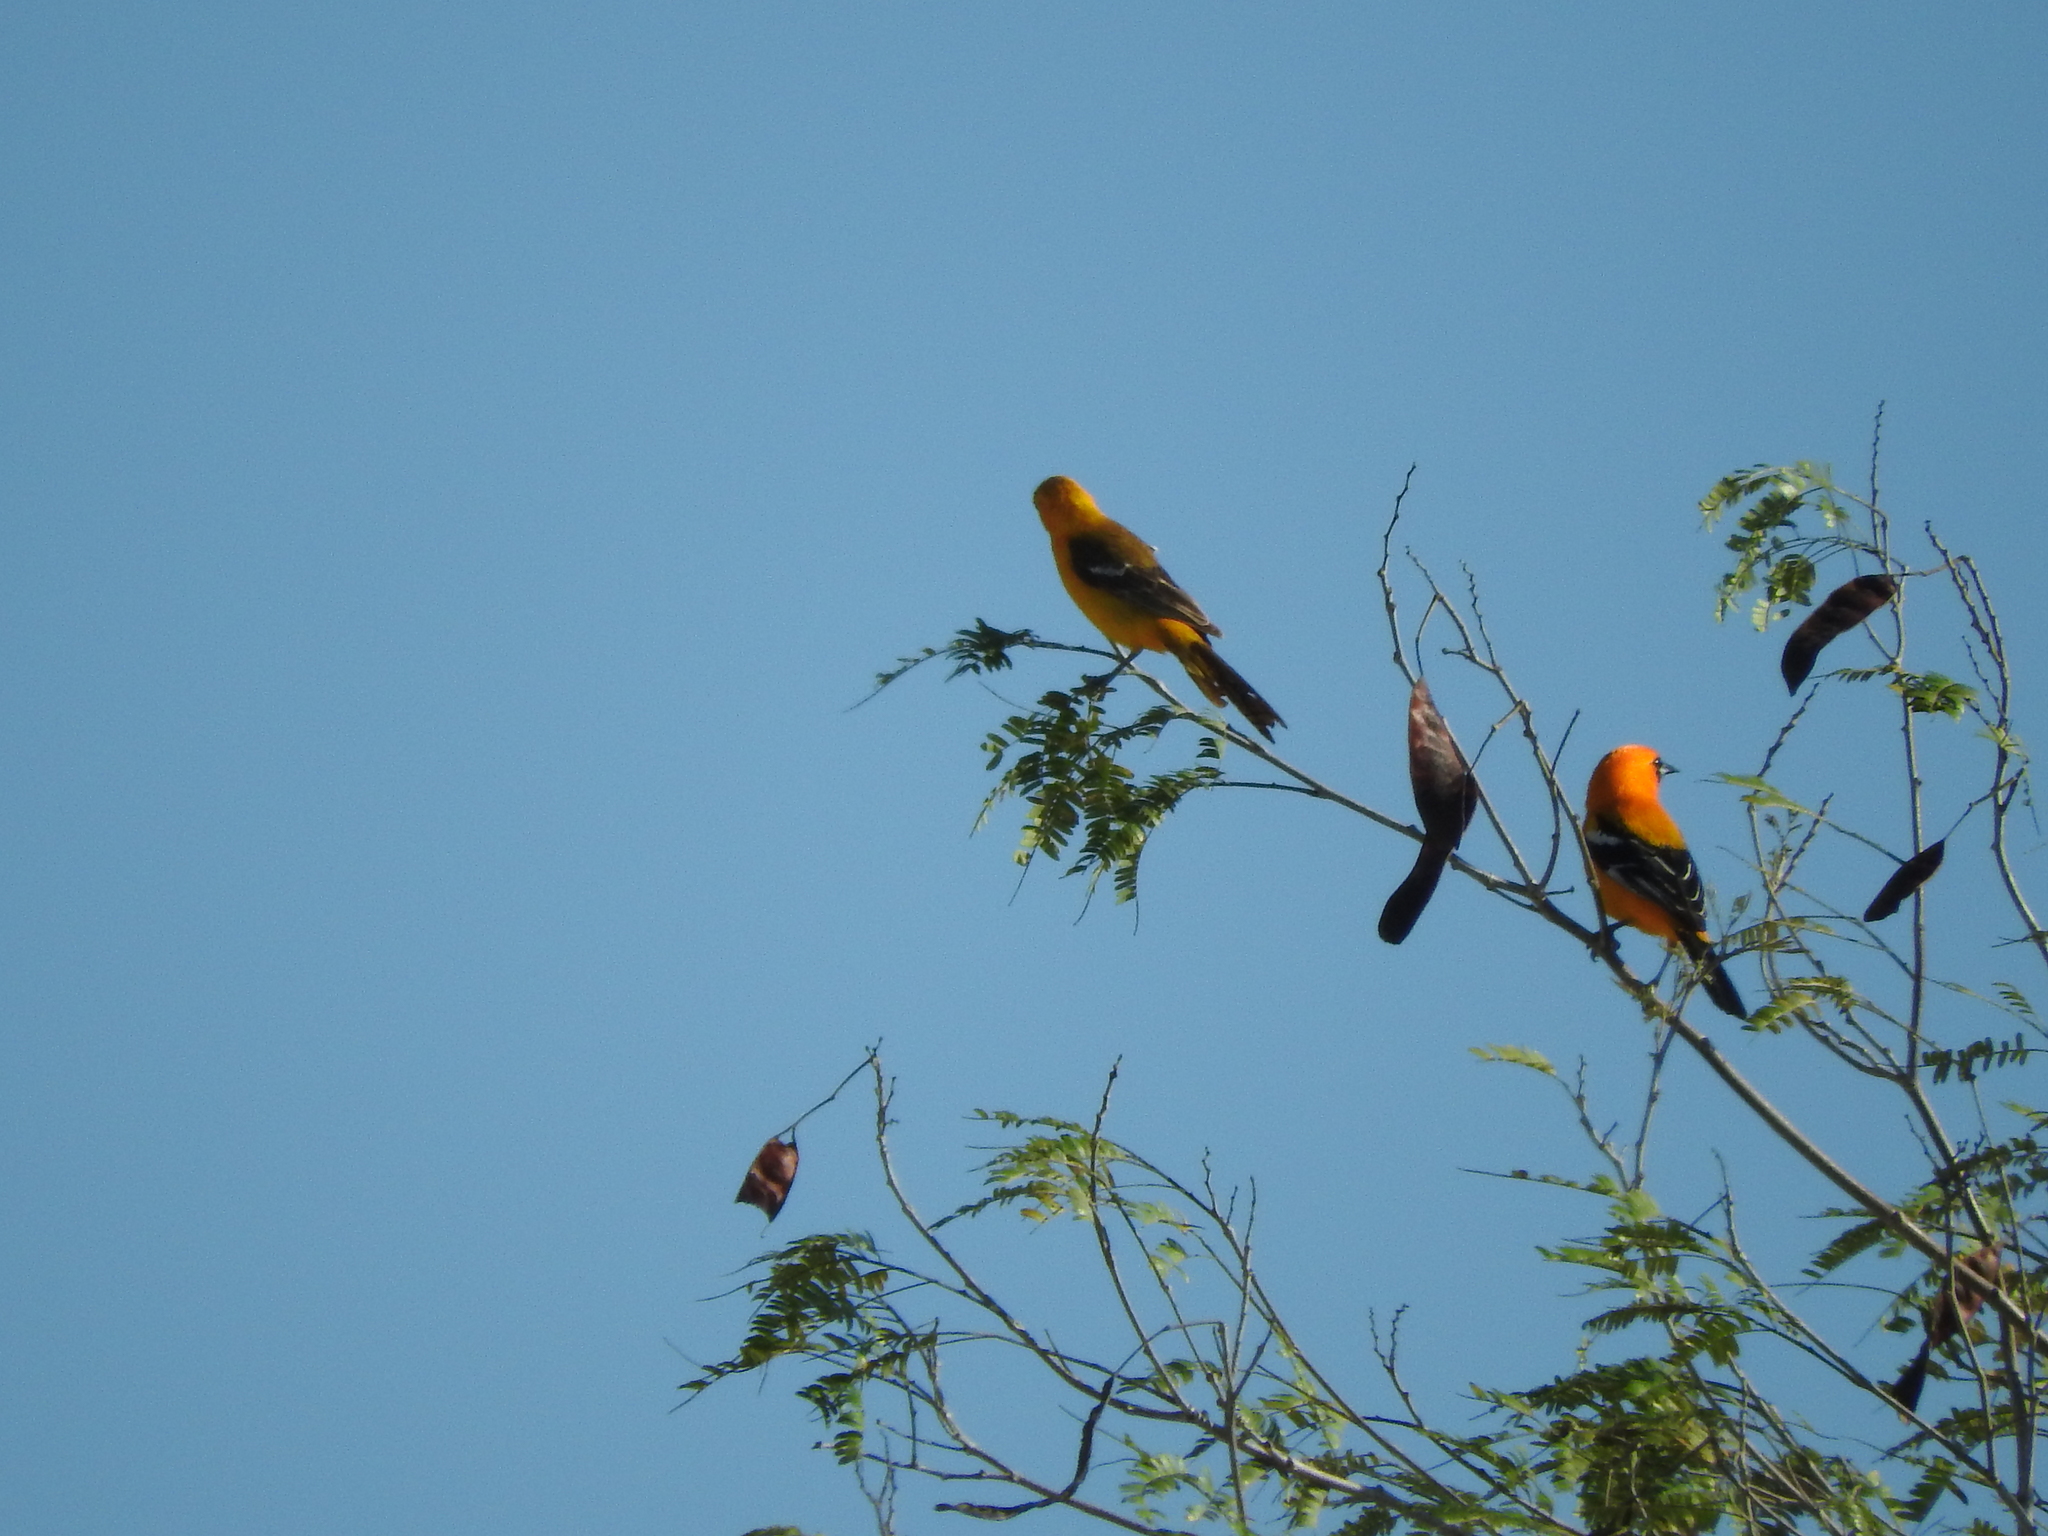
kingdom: Animalia
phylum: Chordata
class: Aves
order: Passeriformes
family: Icteridae
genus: Icterus
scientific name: Icterus auratus
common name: Orange oriole
